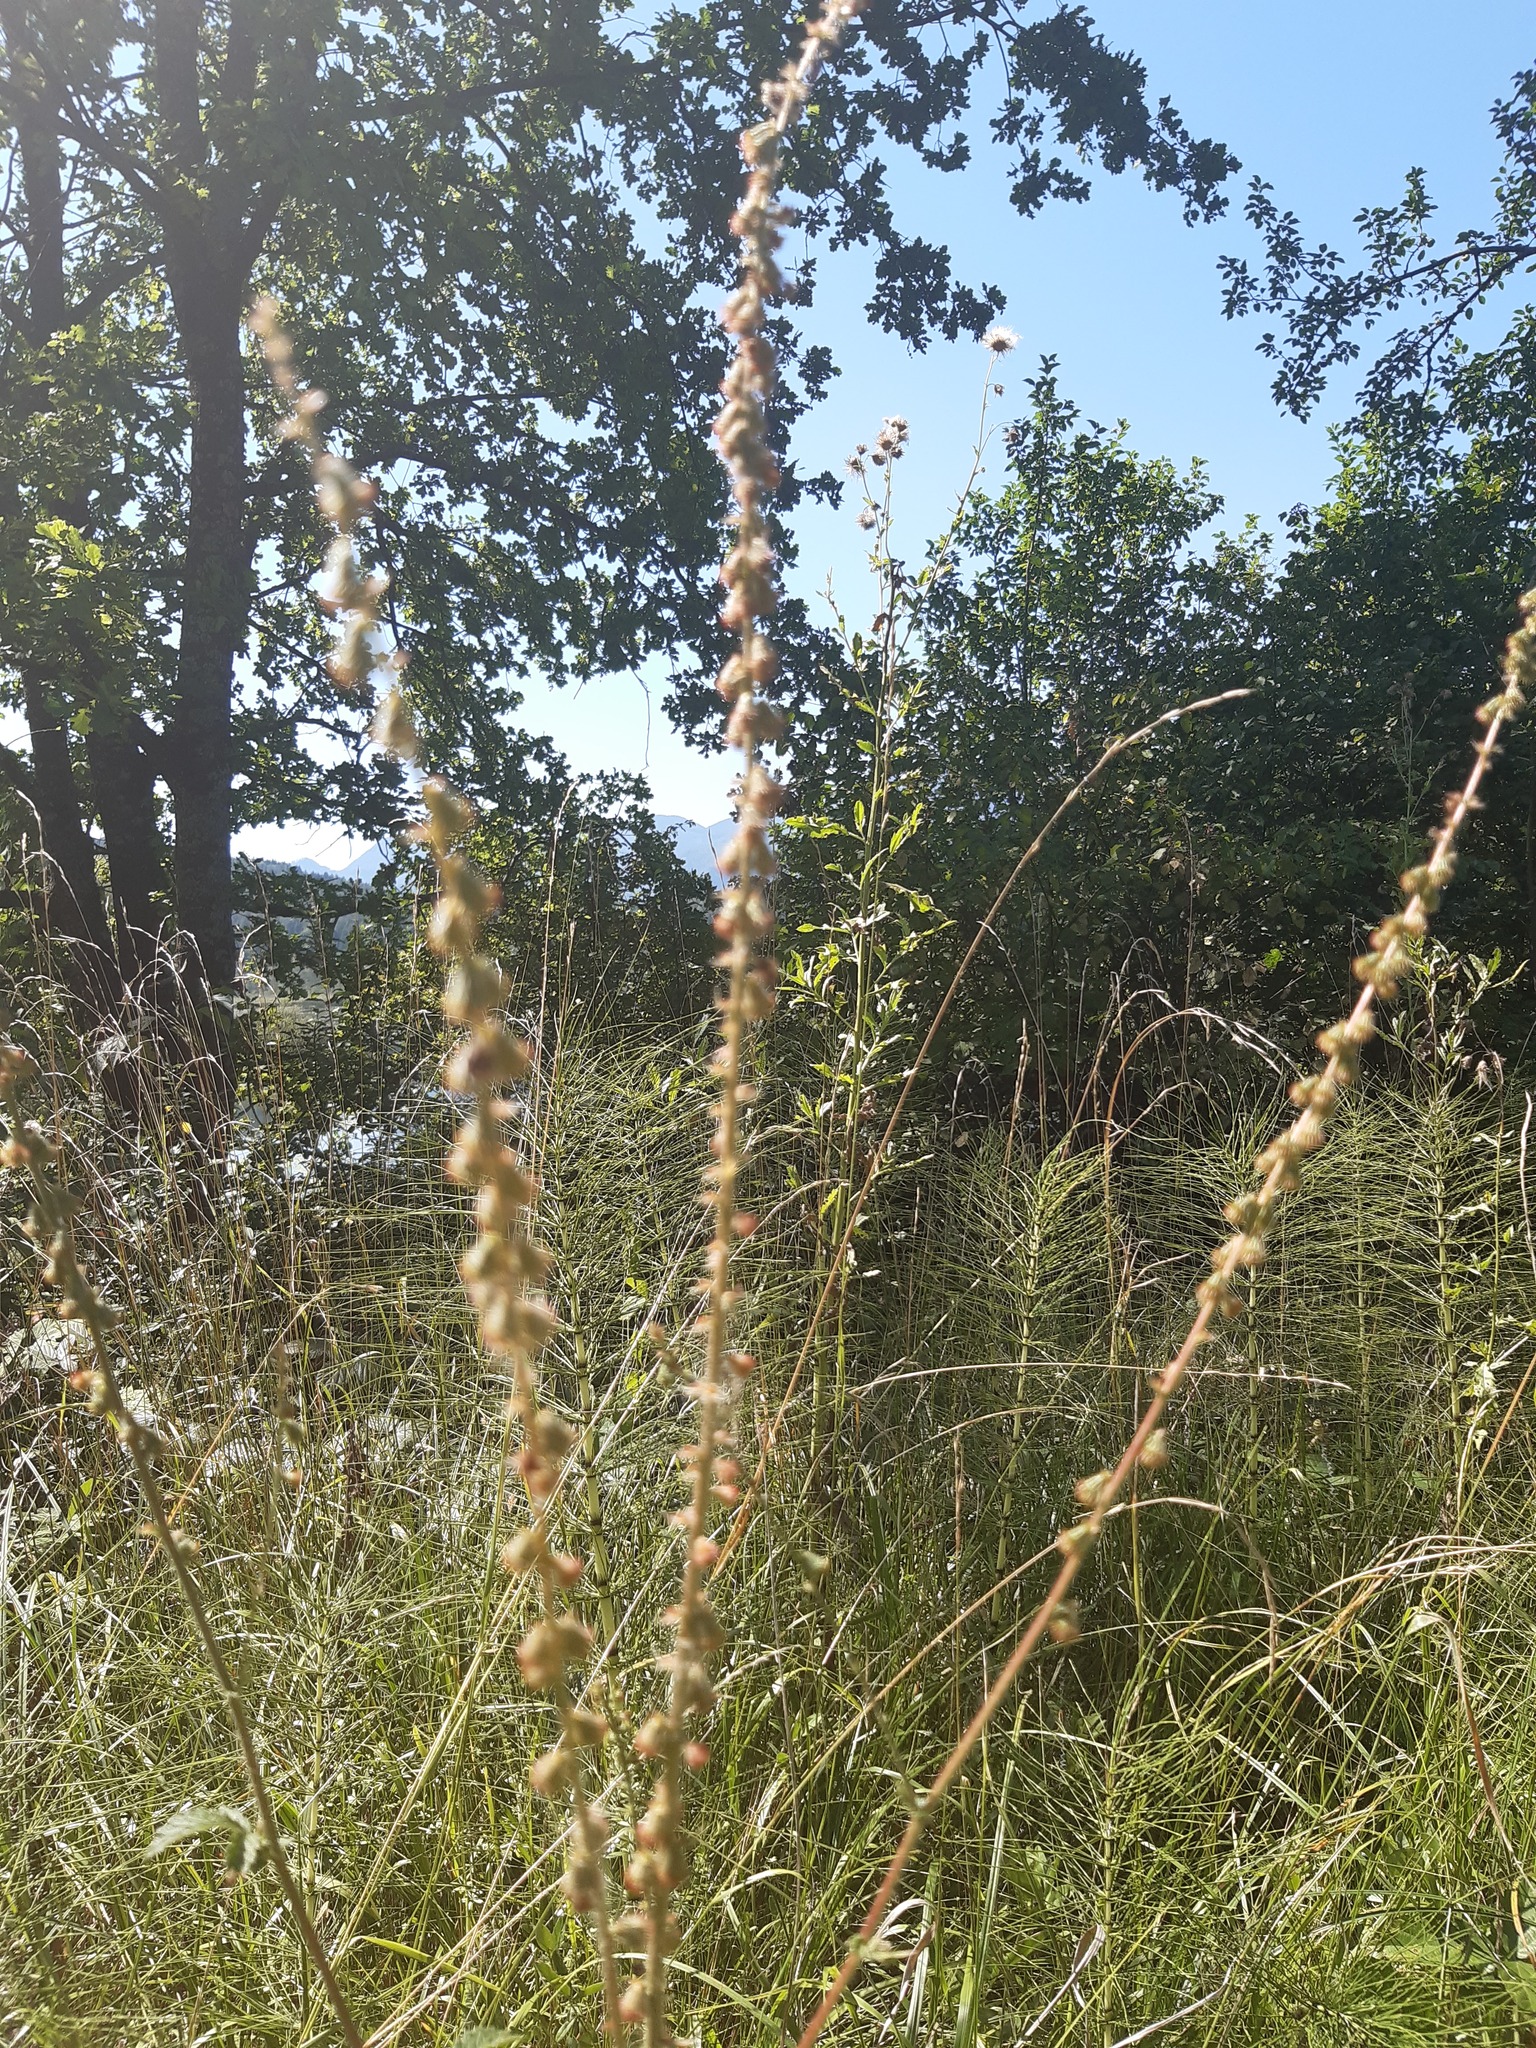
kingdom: Plantae
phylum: Tracheophyta
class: Magnoliopsida
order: Rosales
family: Rosaceae
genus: Agrimonia
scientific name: Agrimonia eupatoria
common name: Agrimony
